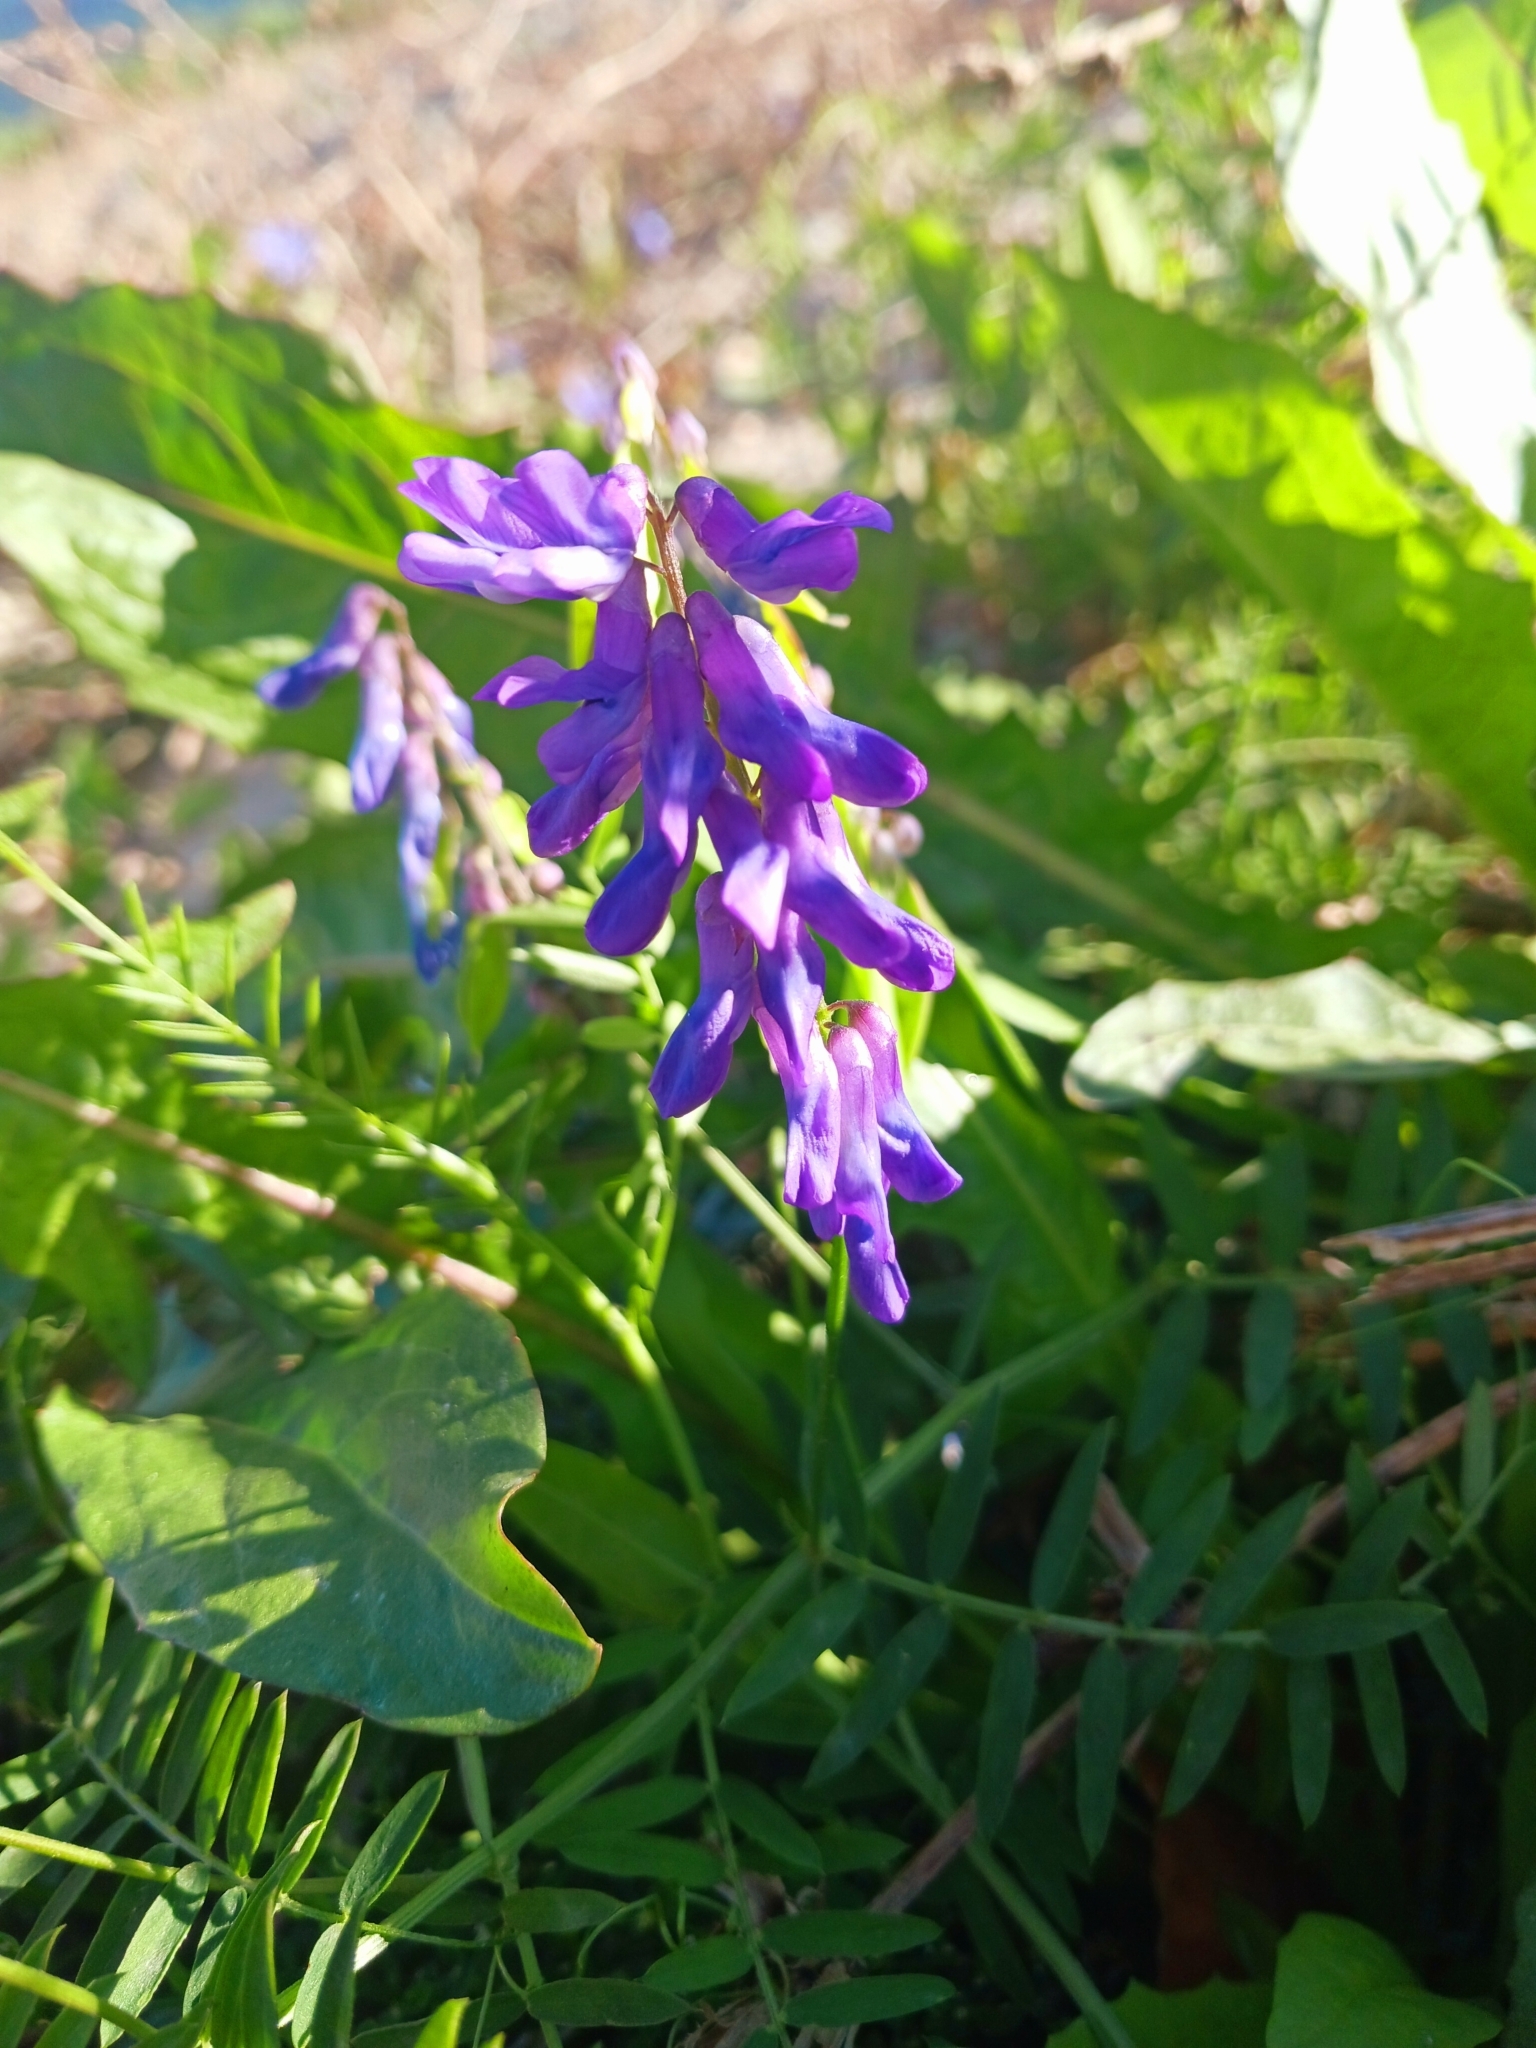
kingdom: Plantae
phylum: Tracheophyta
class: Magnoliopsida
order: Fabales
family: Fabaceae
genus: Vicia
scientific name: Vicia cracca
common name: Bird vetch
